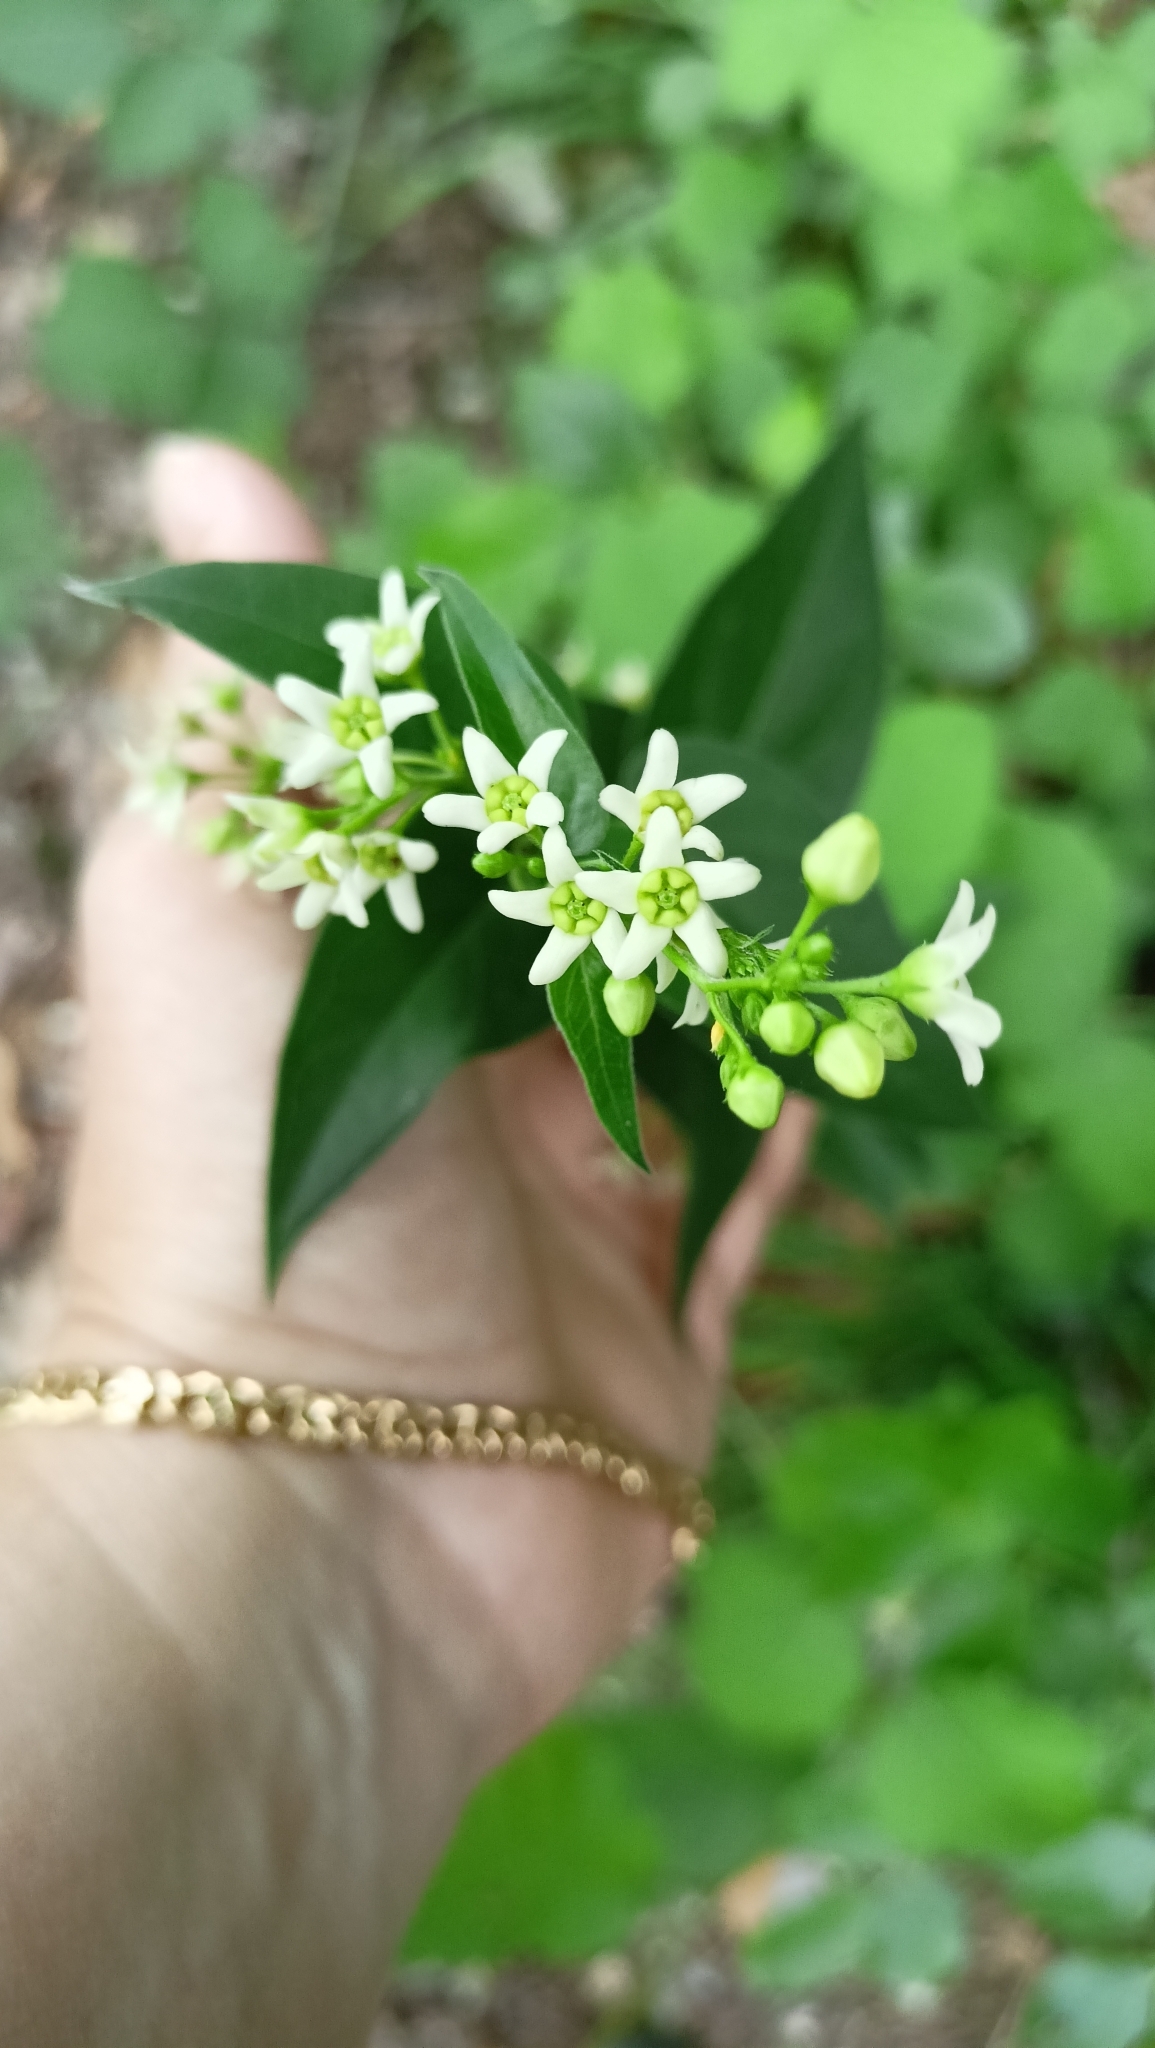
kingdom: Plantae
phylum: Tracheophyta
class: Magnoliopsida
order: Gentianales
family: Apocynaceae
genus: Vincetoxicum
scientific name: Vincetoxicum hirundinaria
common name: White swallowwort
